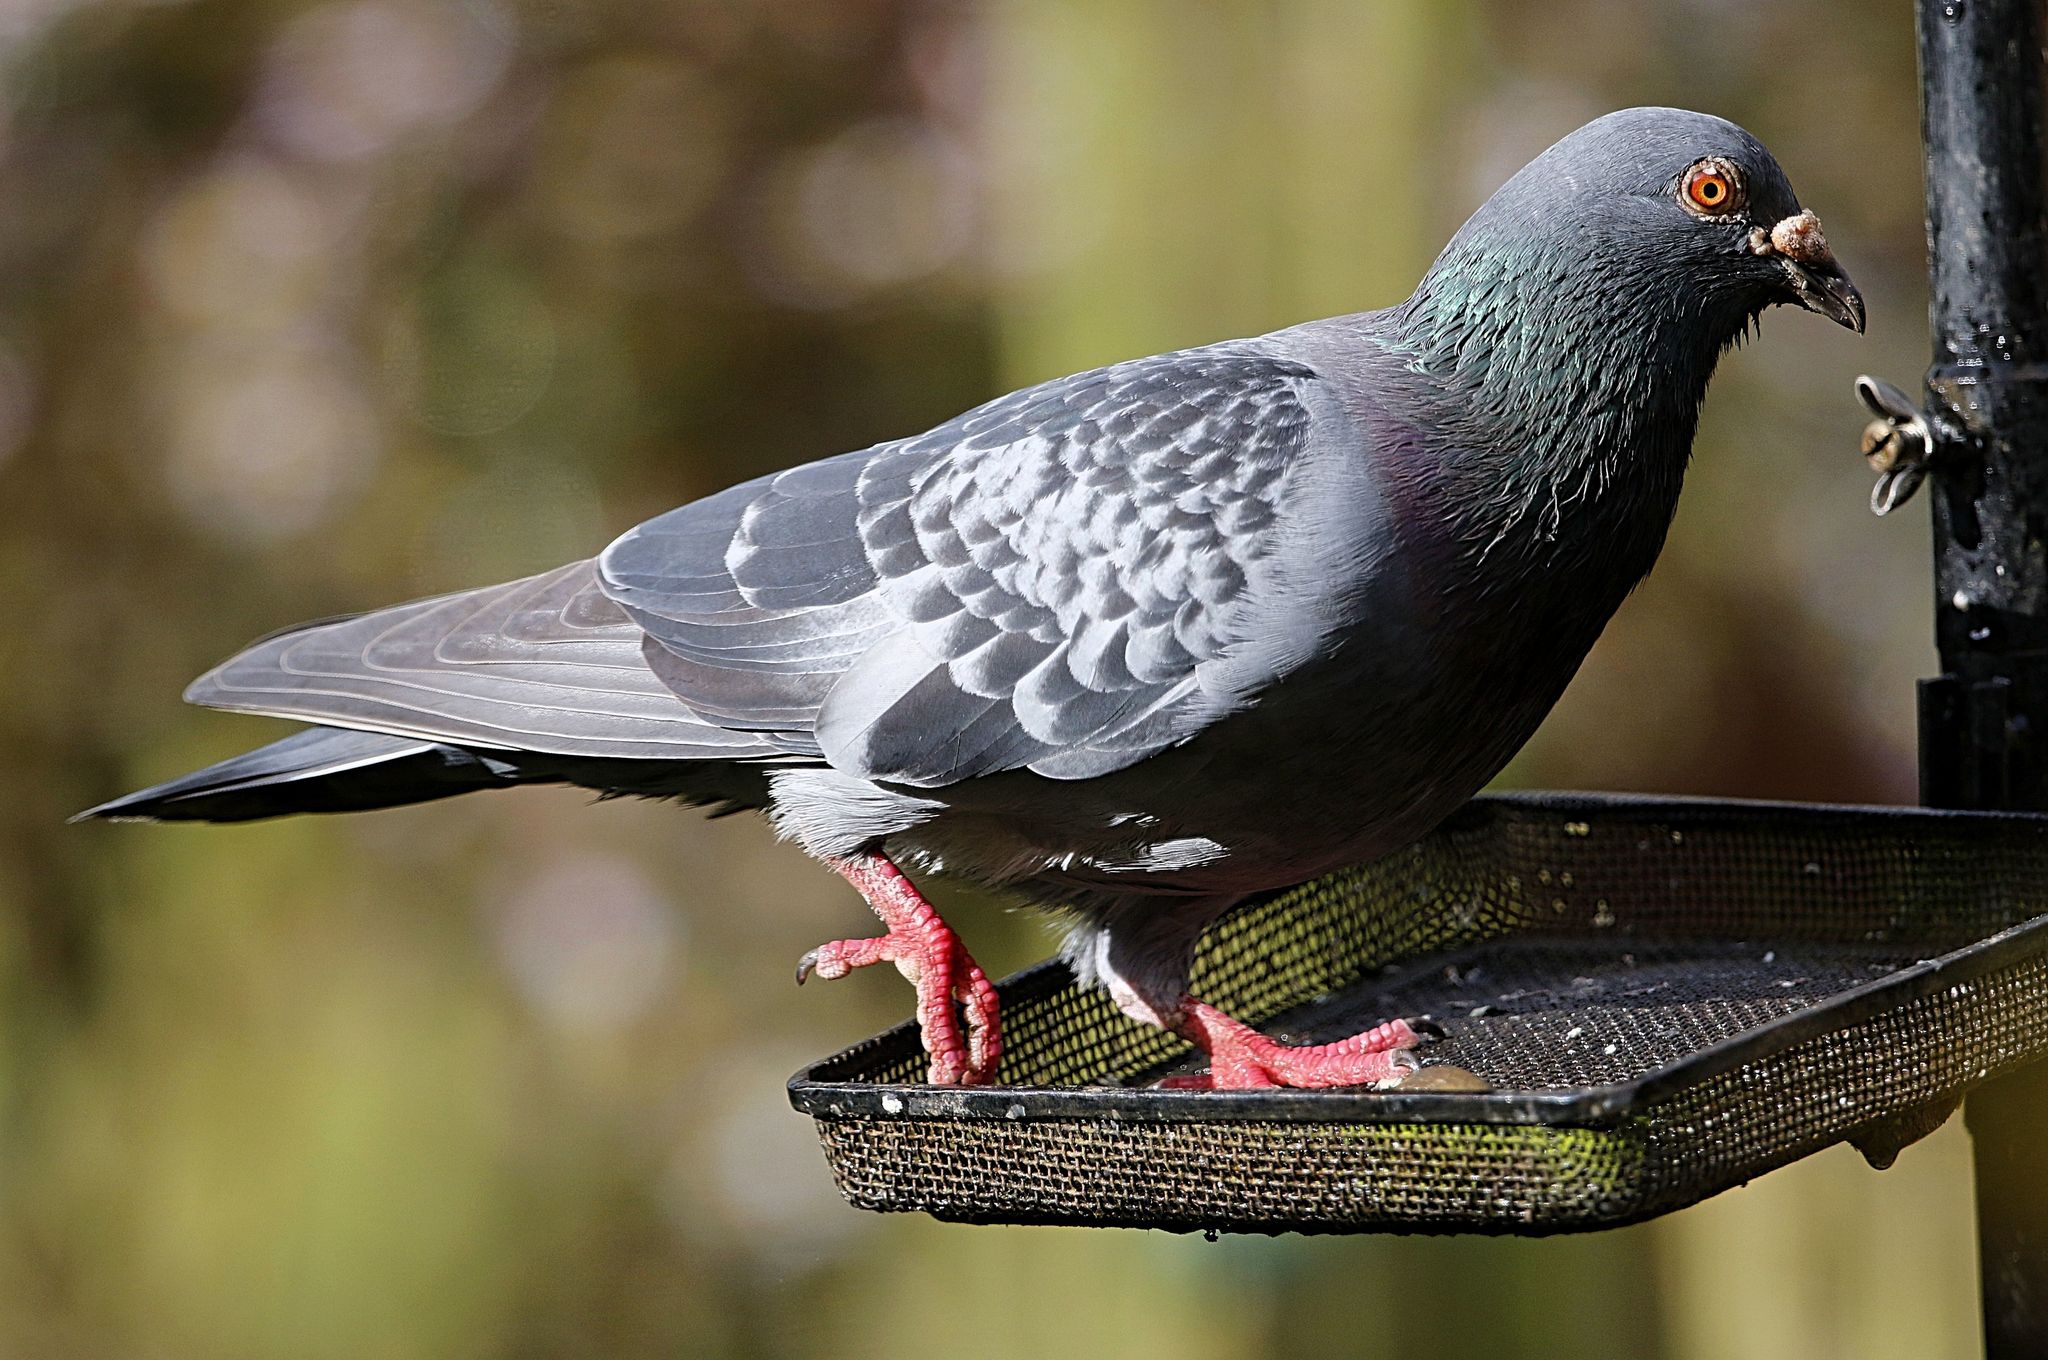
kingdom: Animalia
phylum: Chordata
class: Aves
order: Columbiformes
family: Columbidae
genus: Columba
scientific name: Columba livia
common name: Rock pigeon
